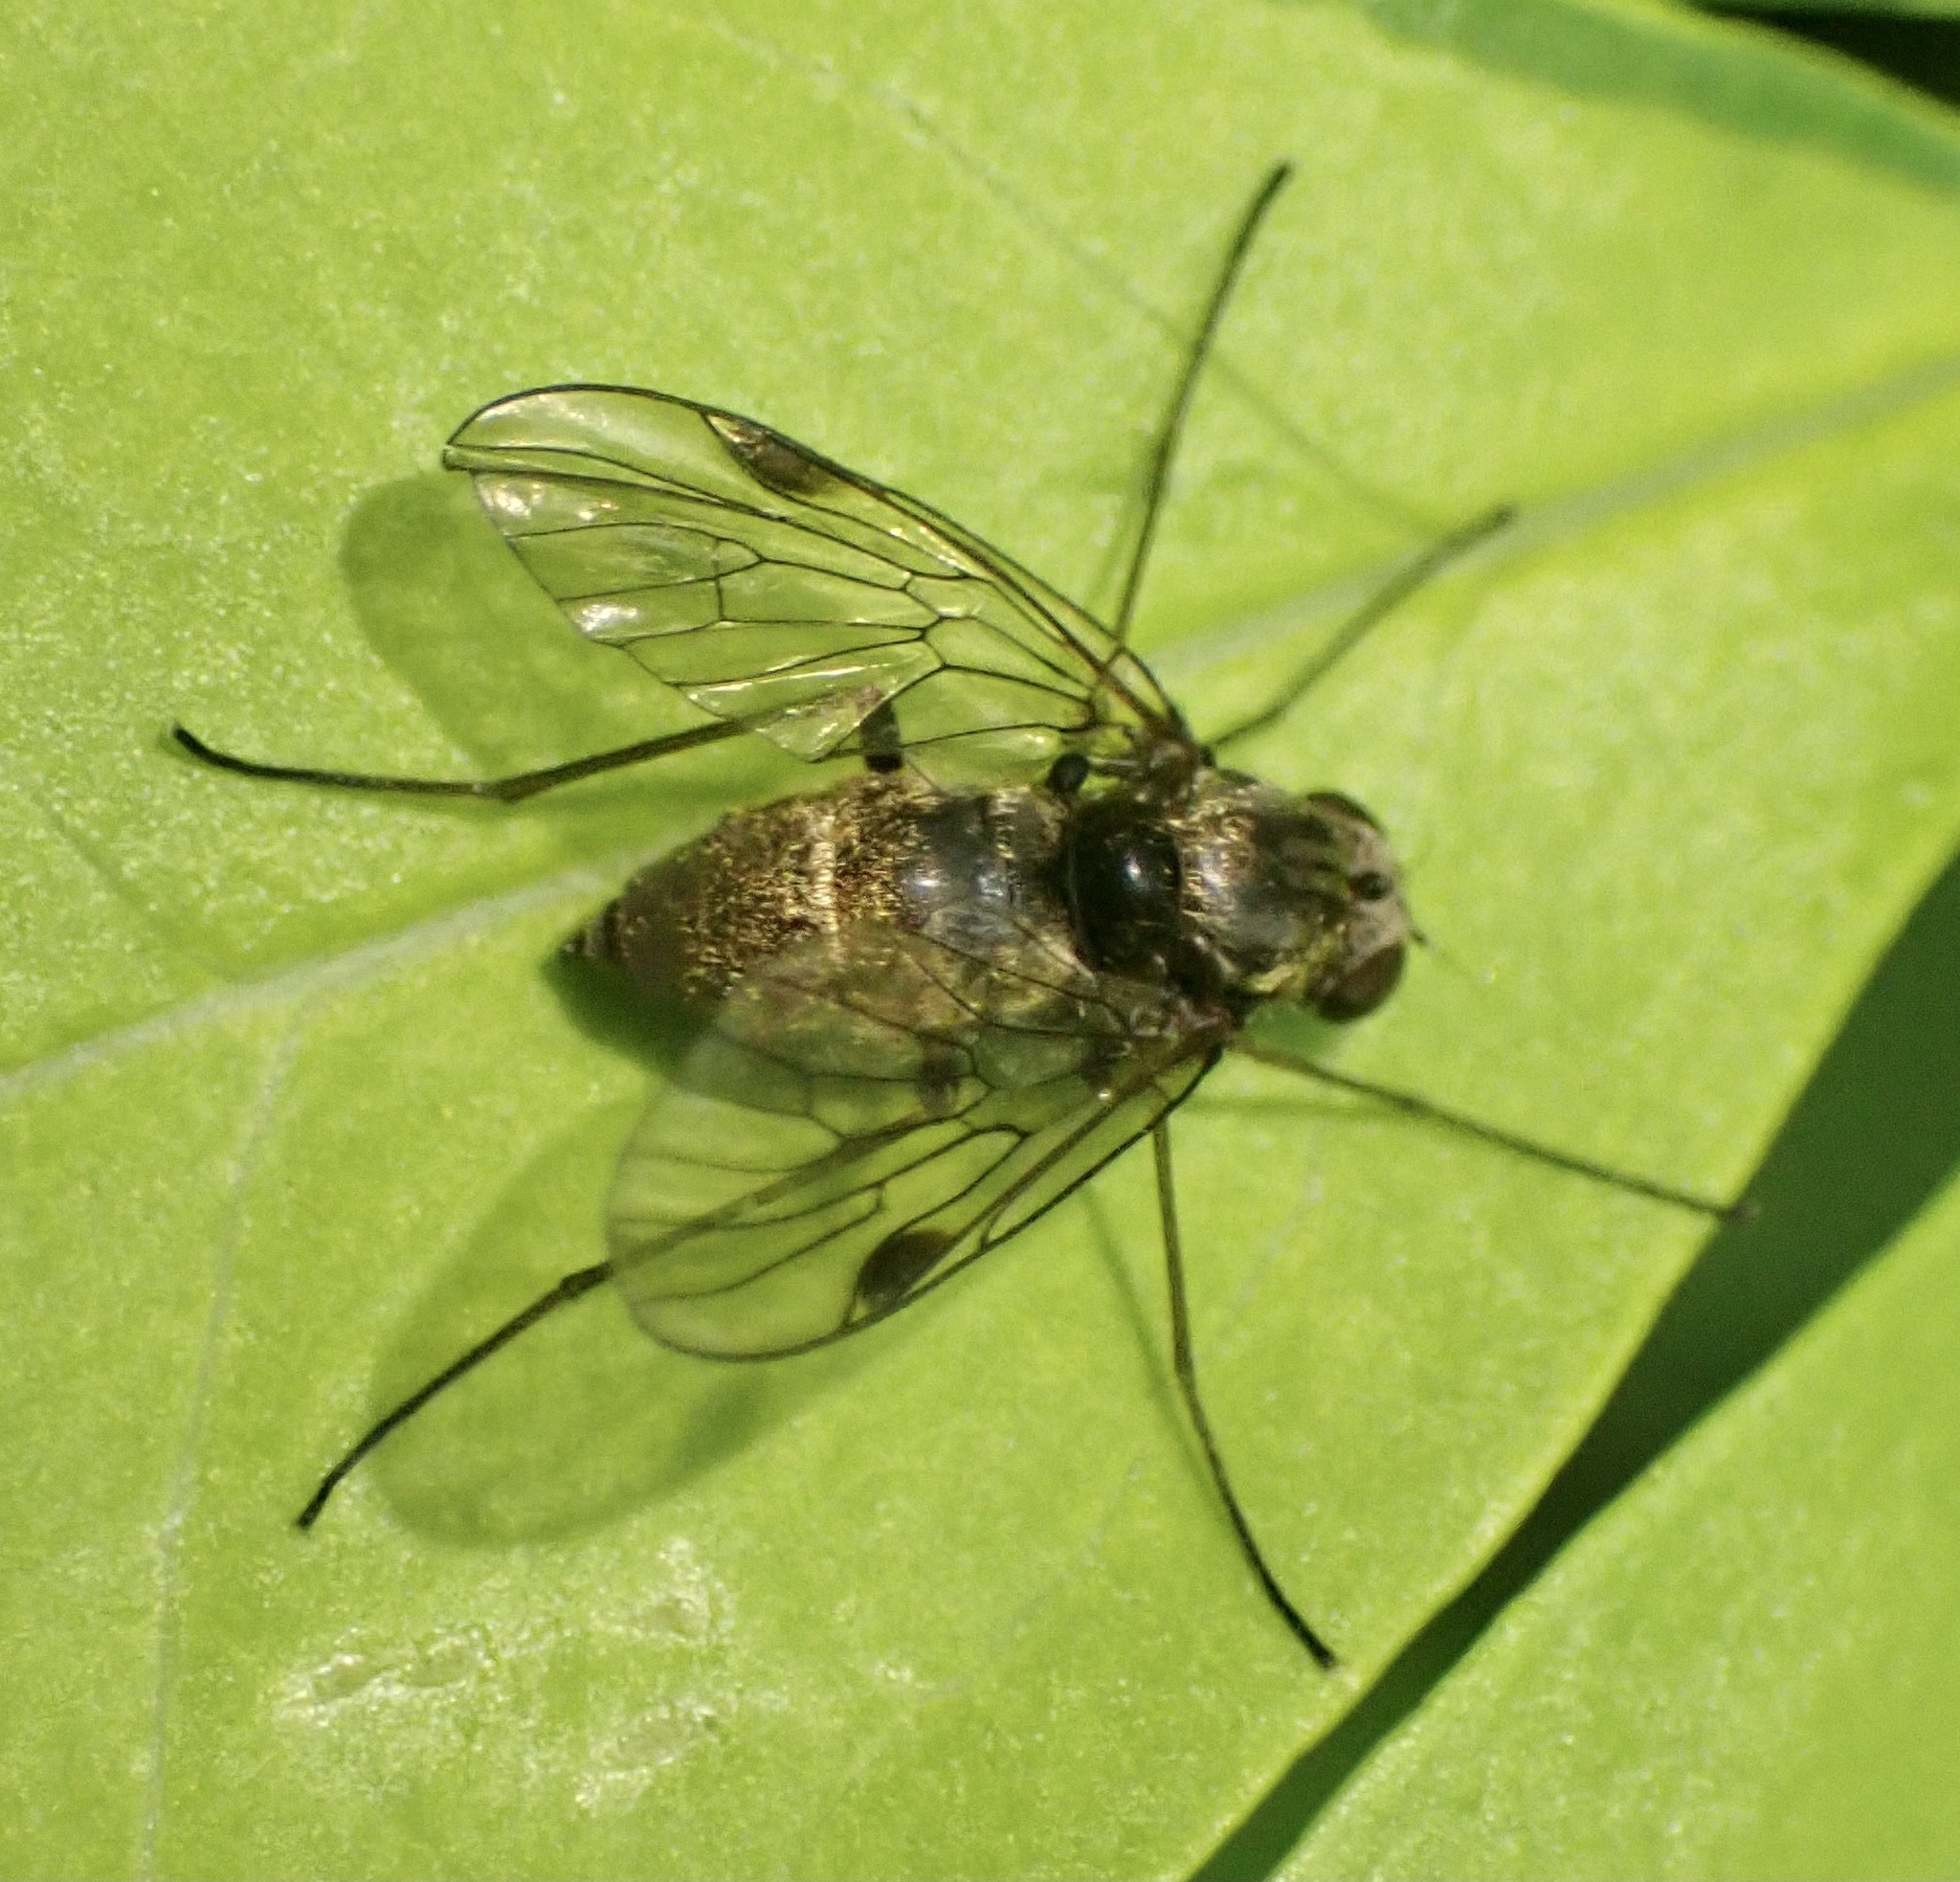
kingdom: Animalia
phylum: Arthropoda
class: Insecta
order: Diptera
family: Rhagionidae
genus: Chrysopilus
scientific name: Chrysopilus cristatus
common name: Black snipefly
